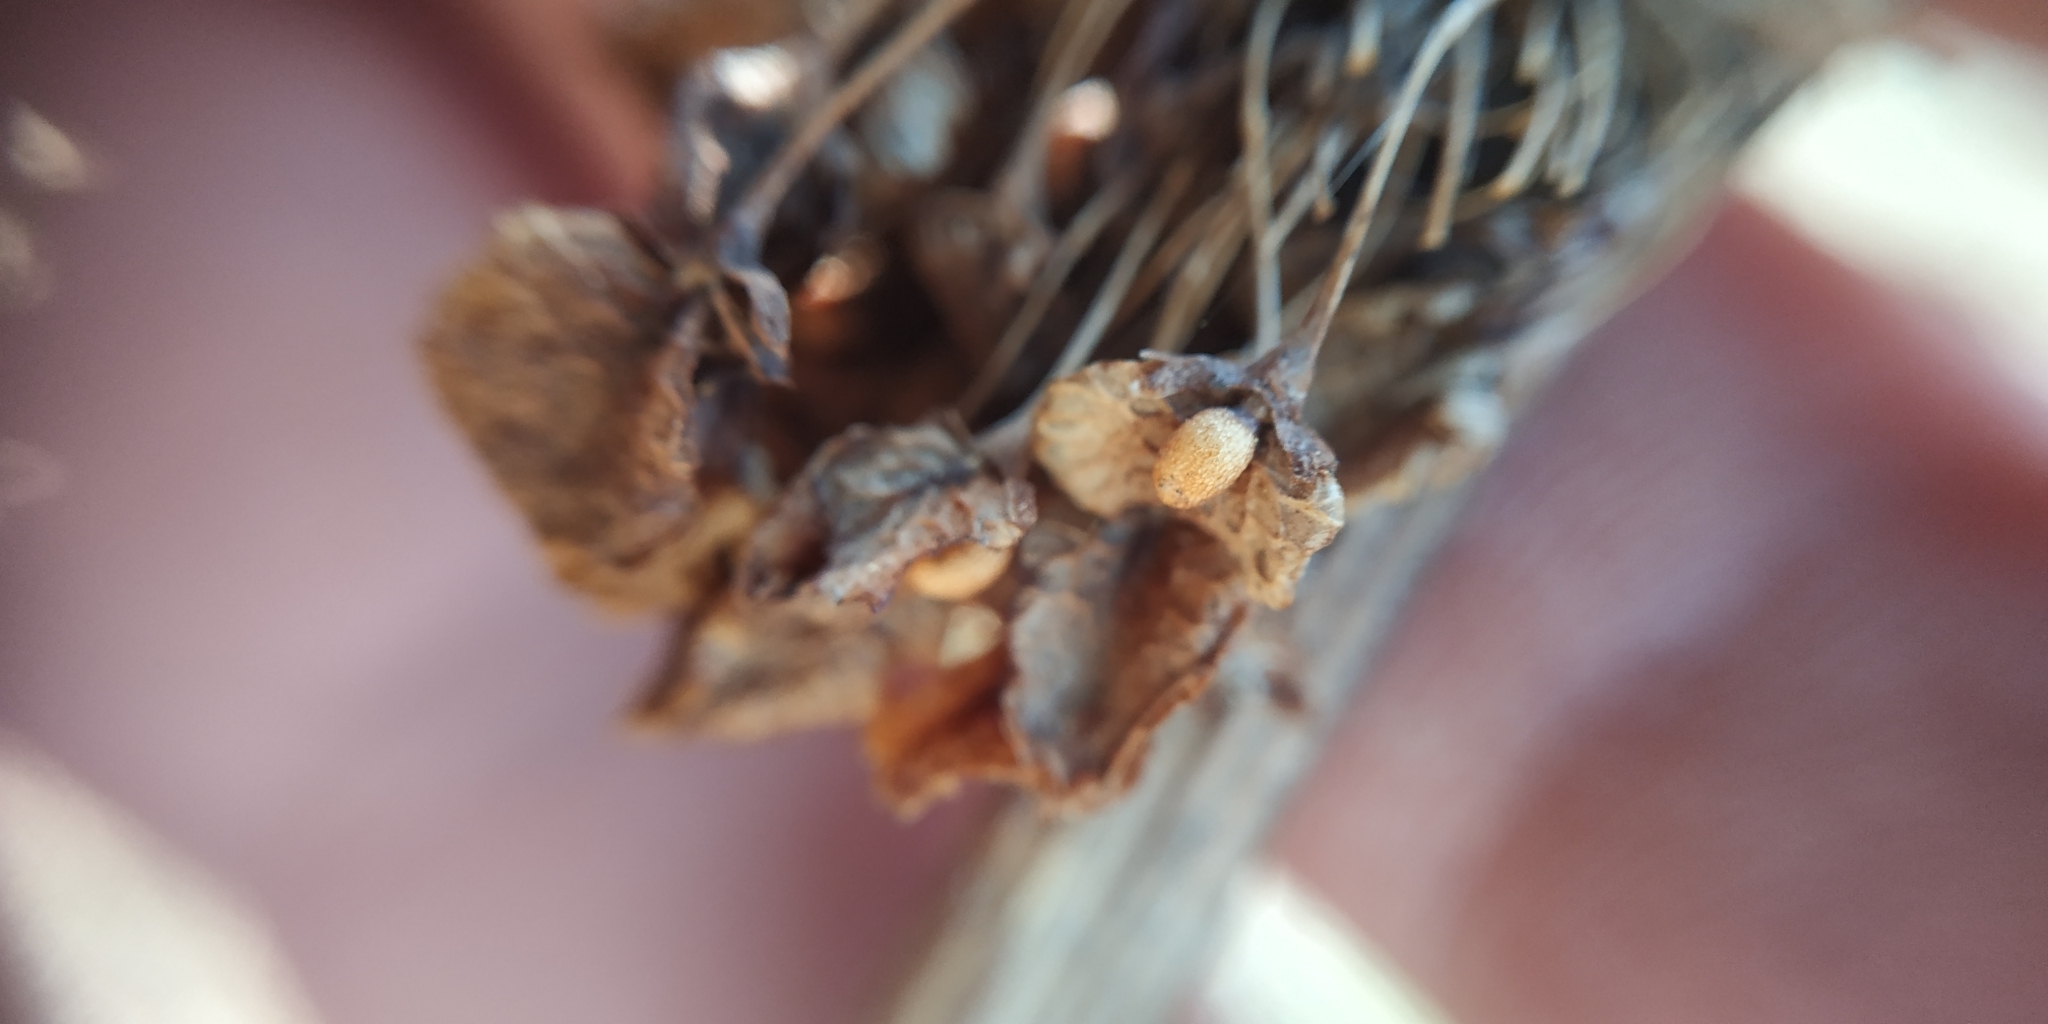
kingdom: Plantae
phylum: Tracheophyta
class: Magnoliopsida
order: Caryophyllales
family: Polygonaceae
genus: Rumex
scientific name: Rumex confertus
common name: Russian dock
